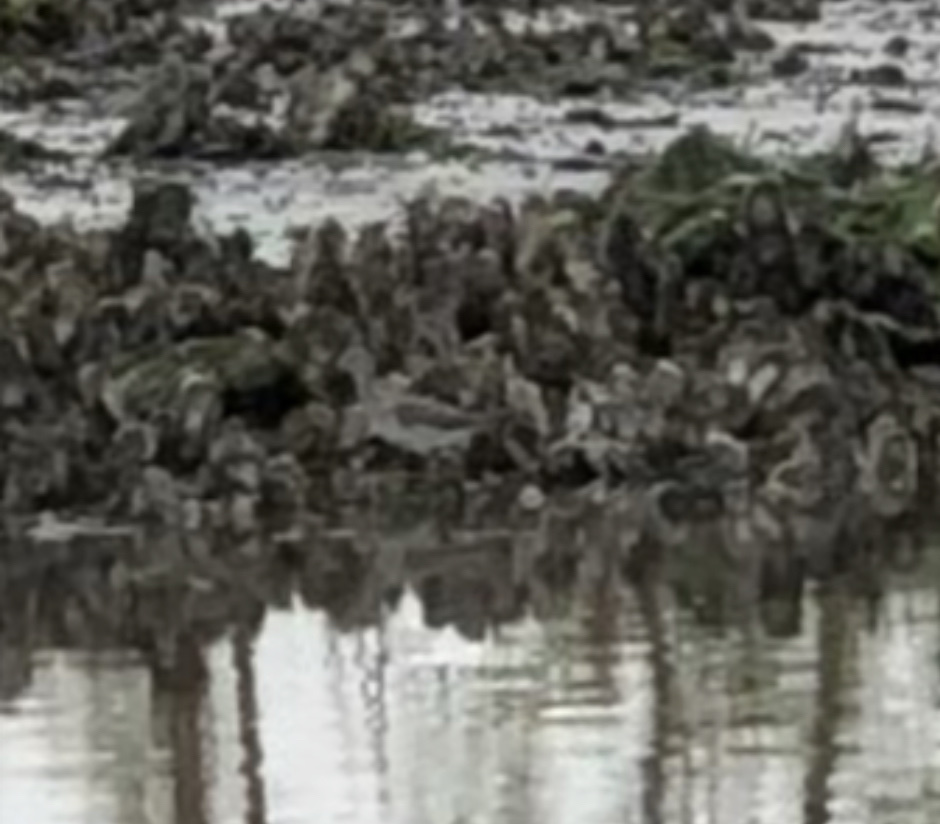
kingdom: Animalia
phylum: Chordata
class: Aves
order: Charadriiformes
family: Scolopacidae
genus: Tringa
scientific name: Tringa melanoleuca
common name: Greater yellowlegs
